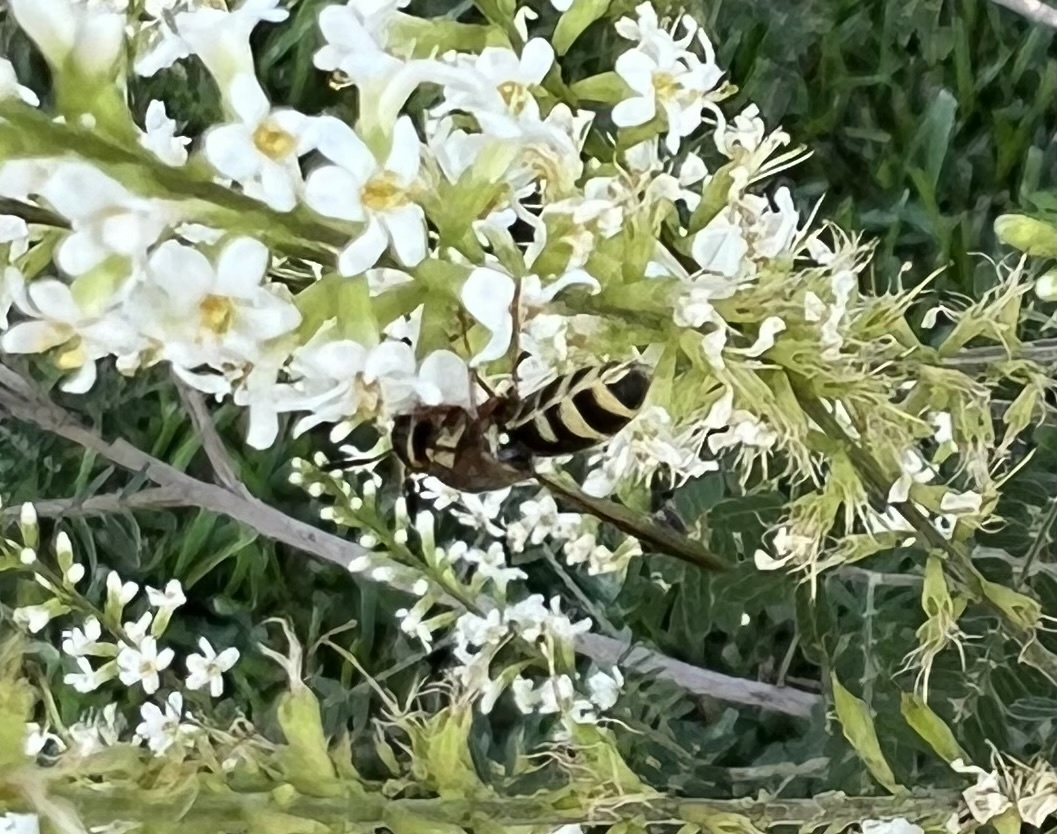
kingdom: Animalia
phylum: Arthropoda
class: Insecta
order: Diptera
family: Stratiomyidae
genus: Hoplitimyia
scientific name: Hoplitimyia constans
